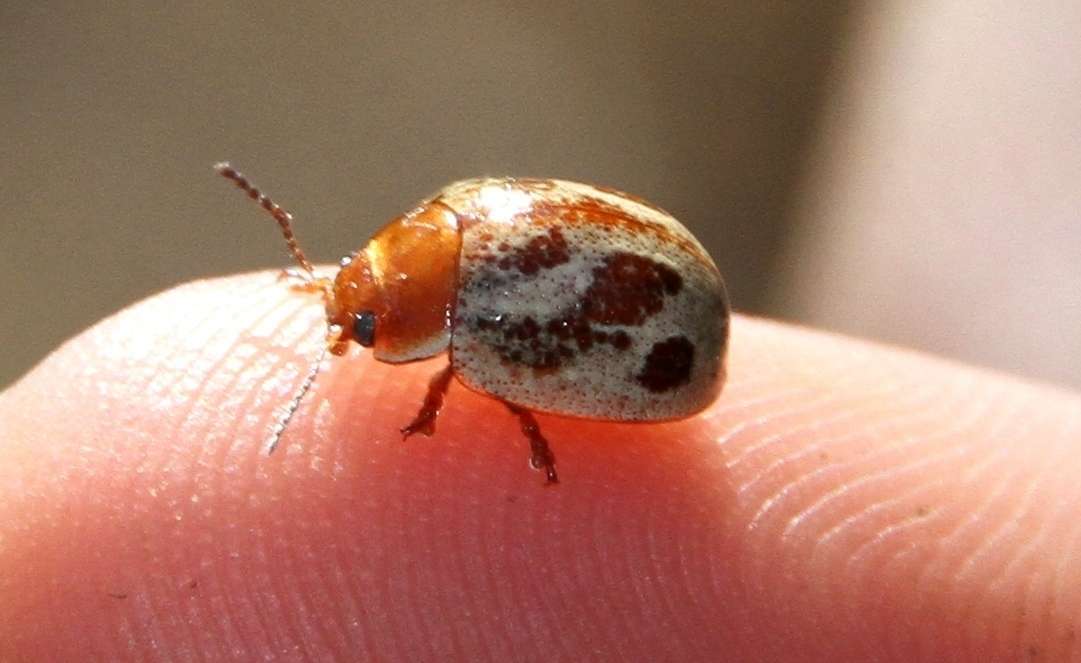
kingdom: Animalia
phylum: Arthropoda
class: Insecta
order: Coleoptera
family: Chrysomelidae
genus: Paropsisterna
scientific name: Paropsisterna
